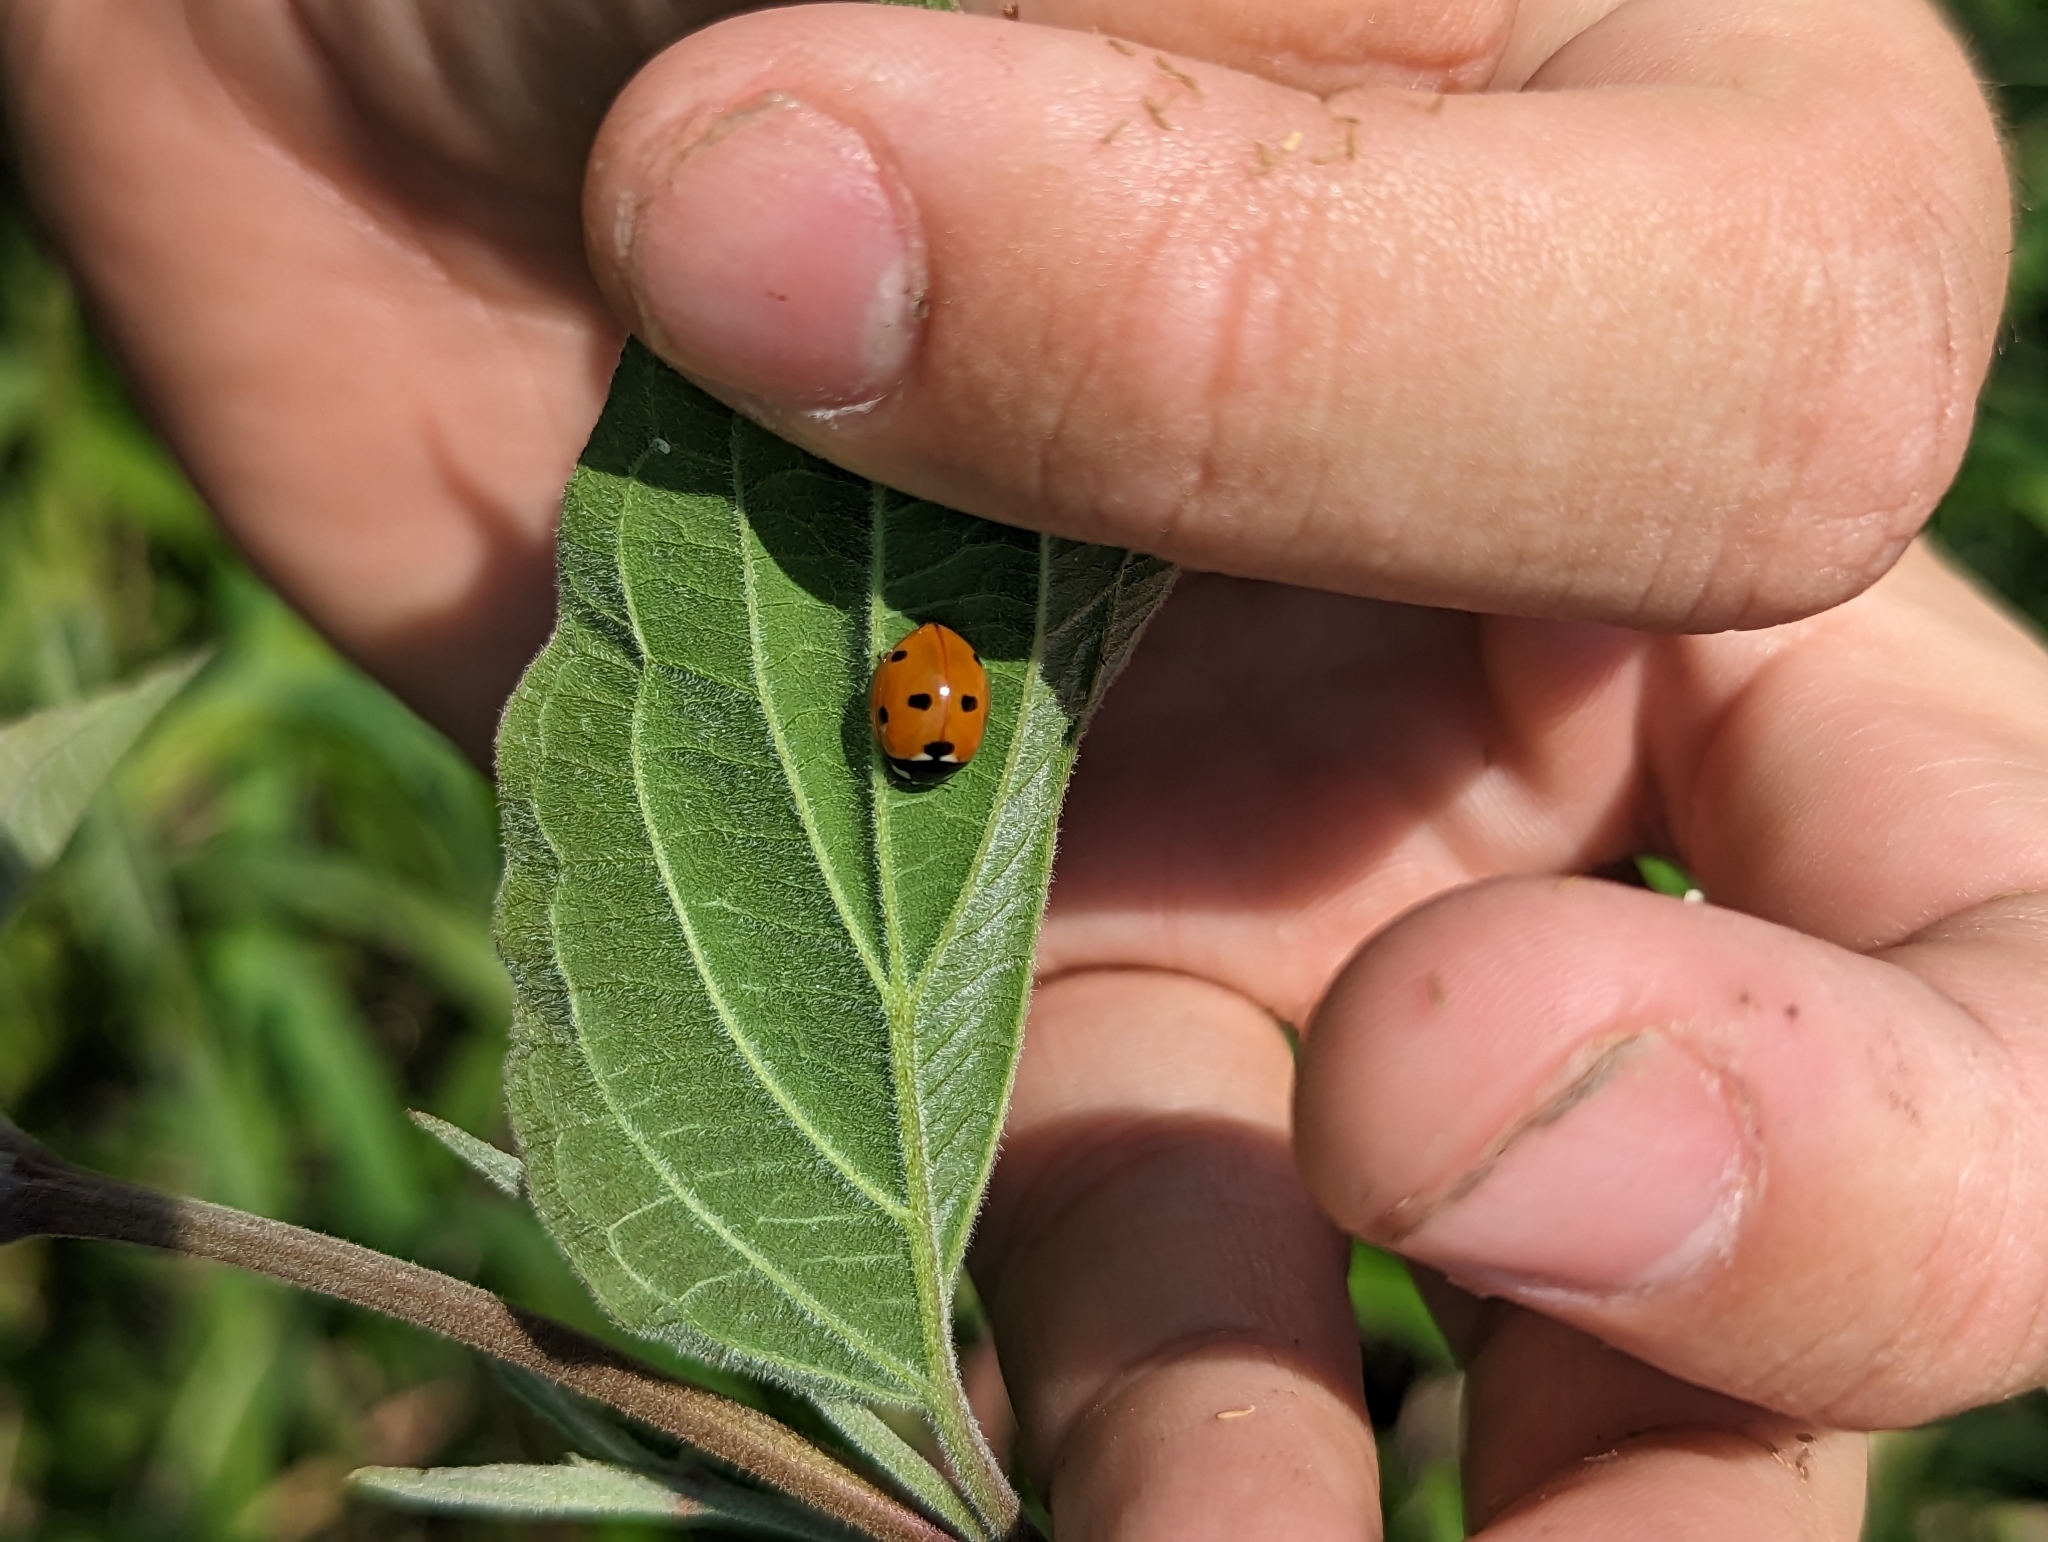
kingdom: Animalia
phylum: Arthropoda
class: Insecta
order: Coleoptera
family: Coccinellidae
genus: Coccinella
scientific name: Coccinella septempunctata
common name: Sevenspotted lady beetle
